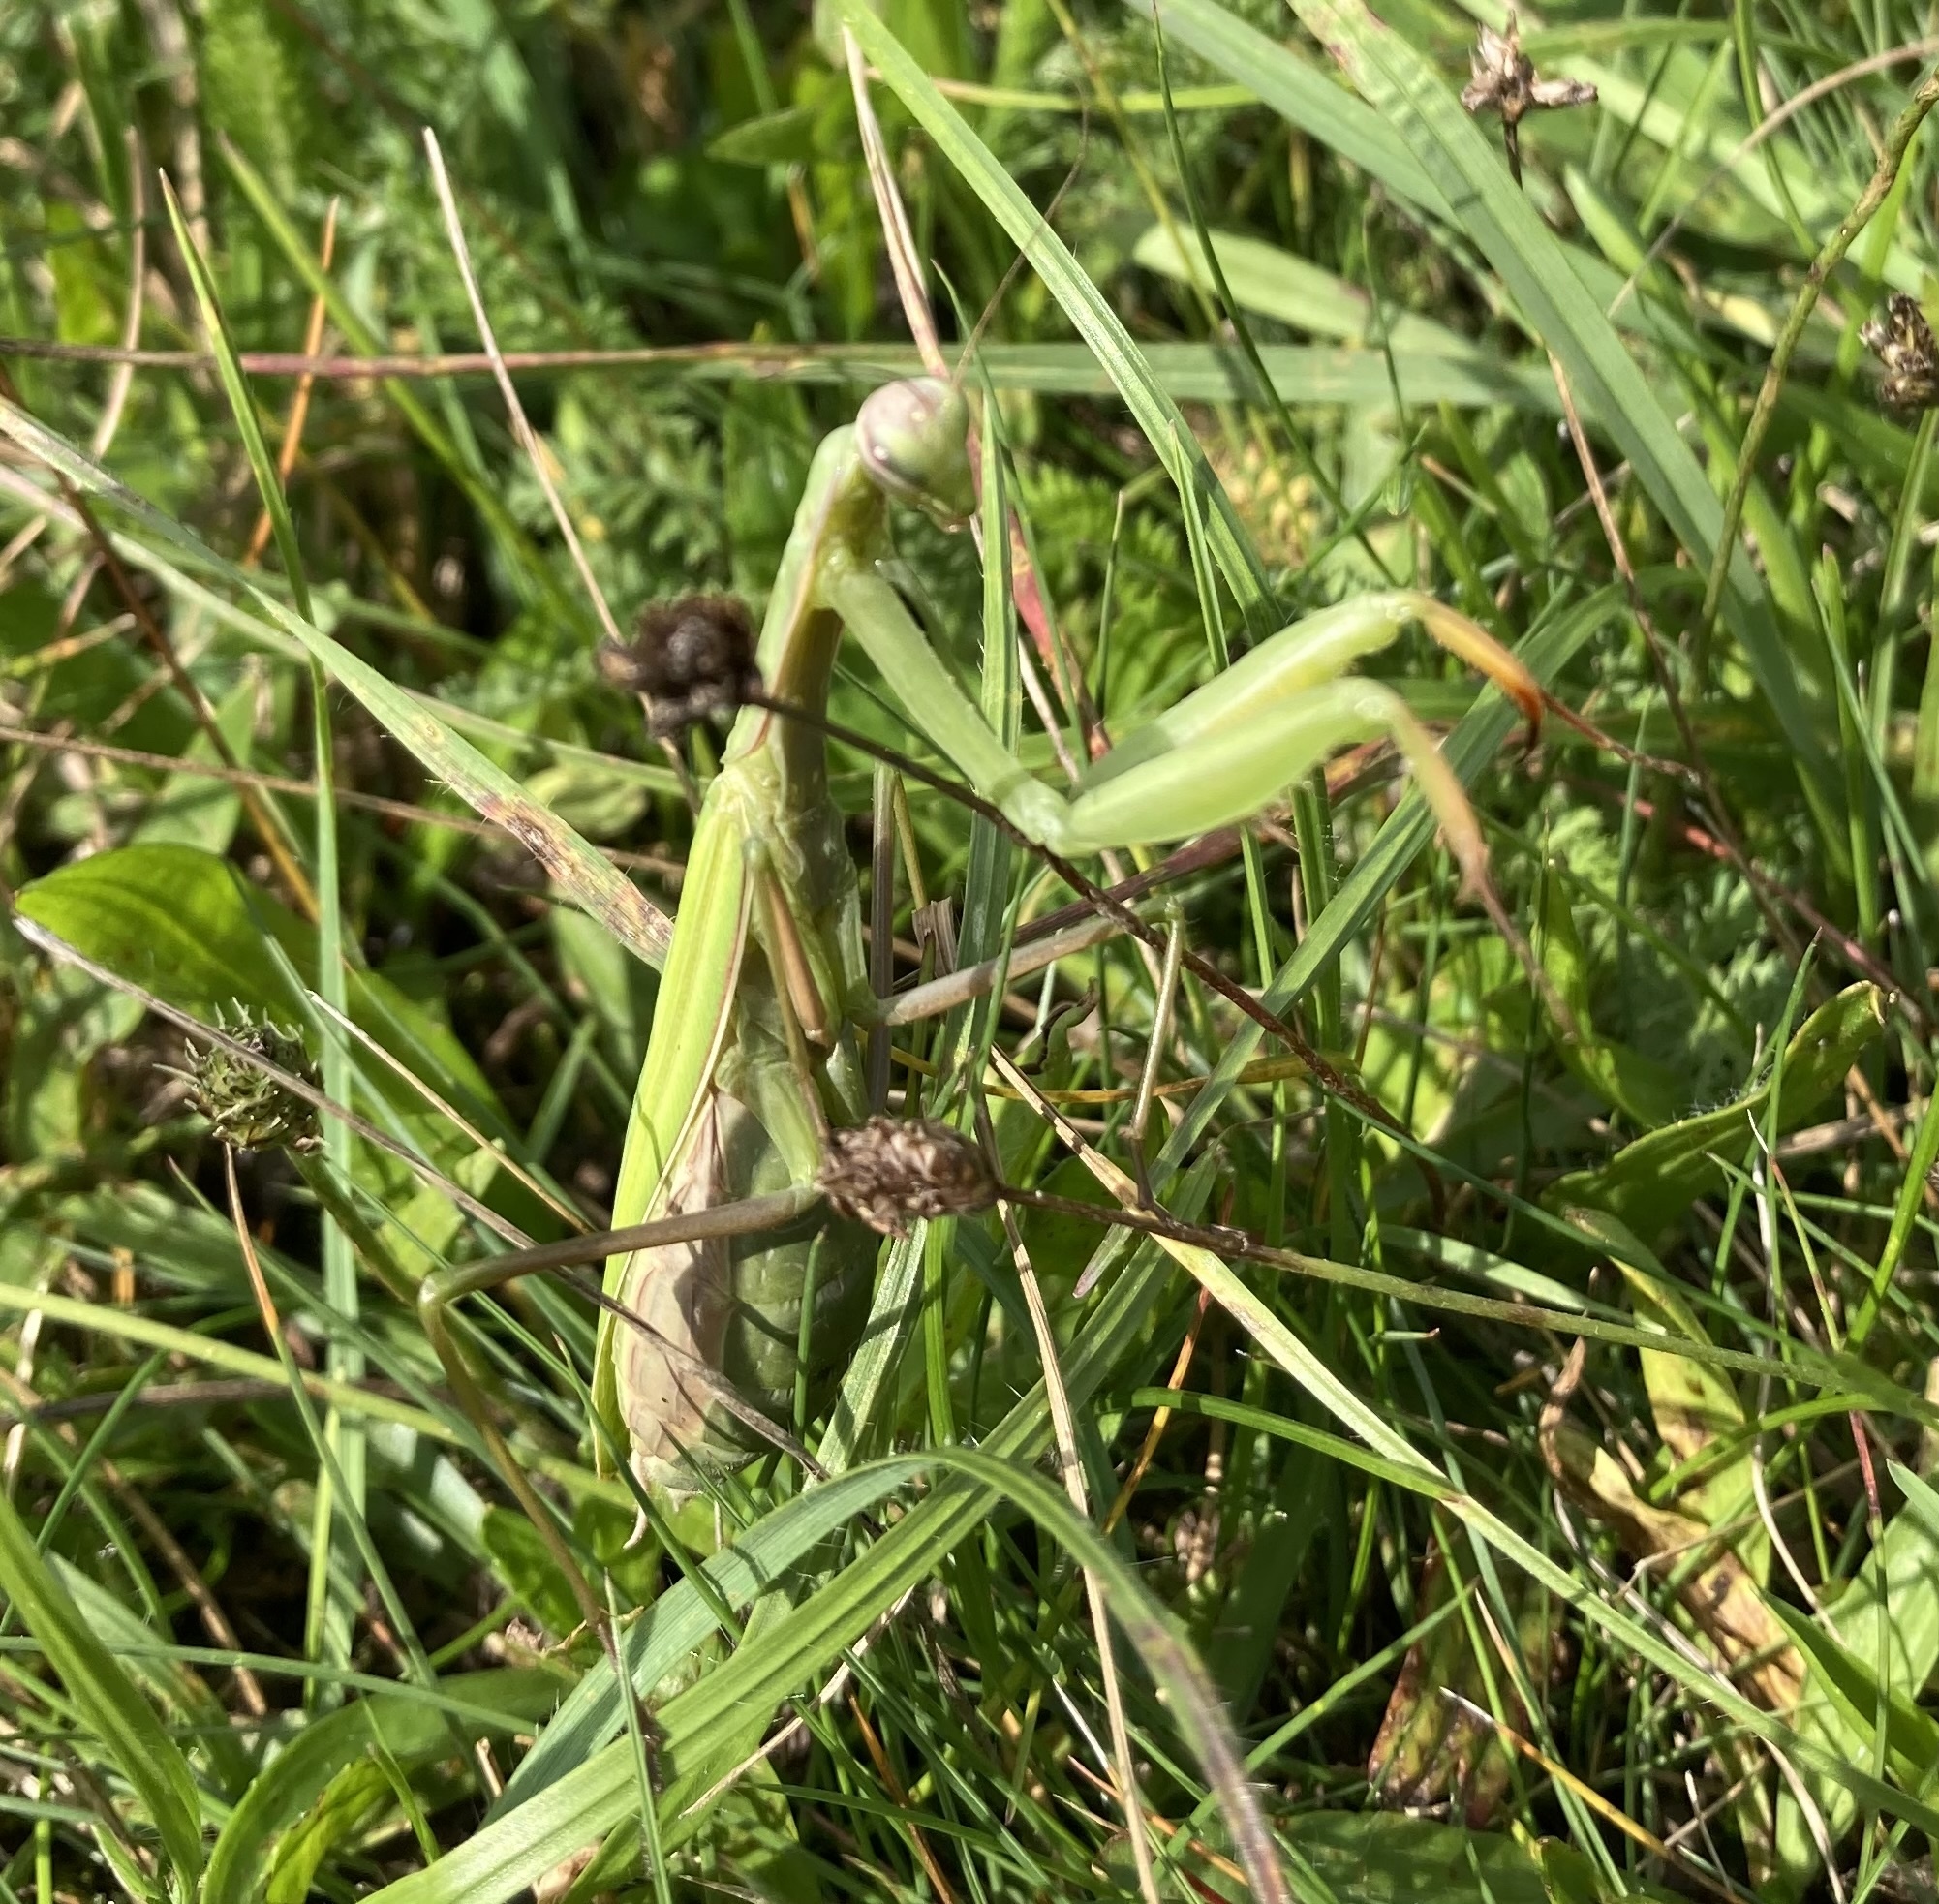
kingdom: Animalia
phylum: Arthropoda
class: Insecta
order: Mantodea
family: Mantidae
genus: Mantis
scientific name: Mantis religiosa
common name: Praying mantis
